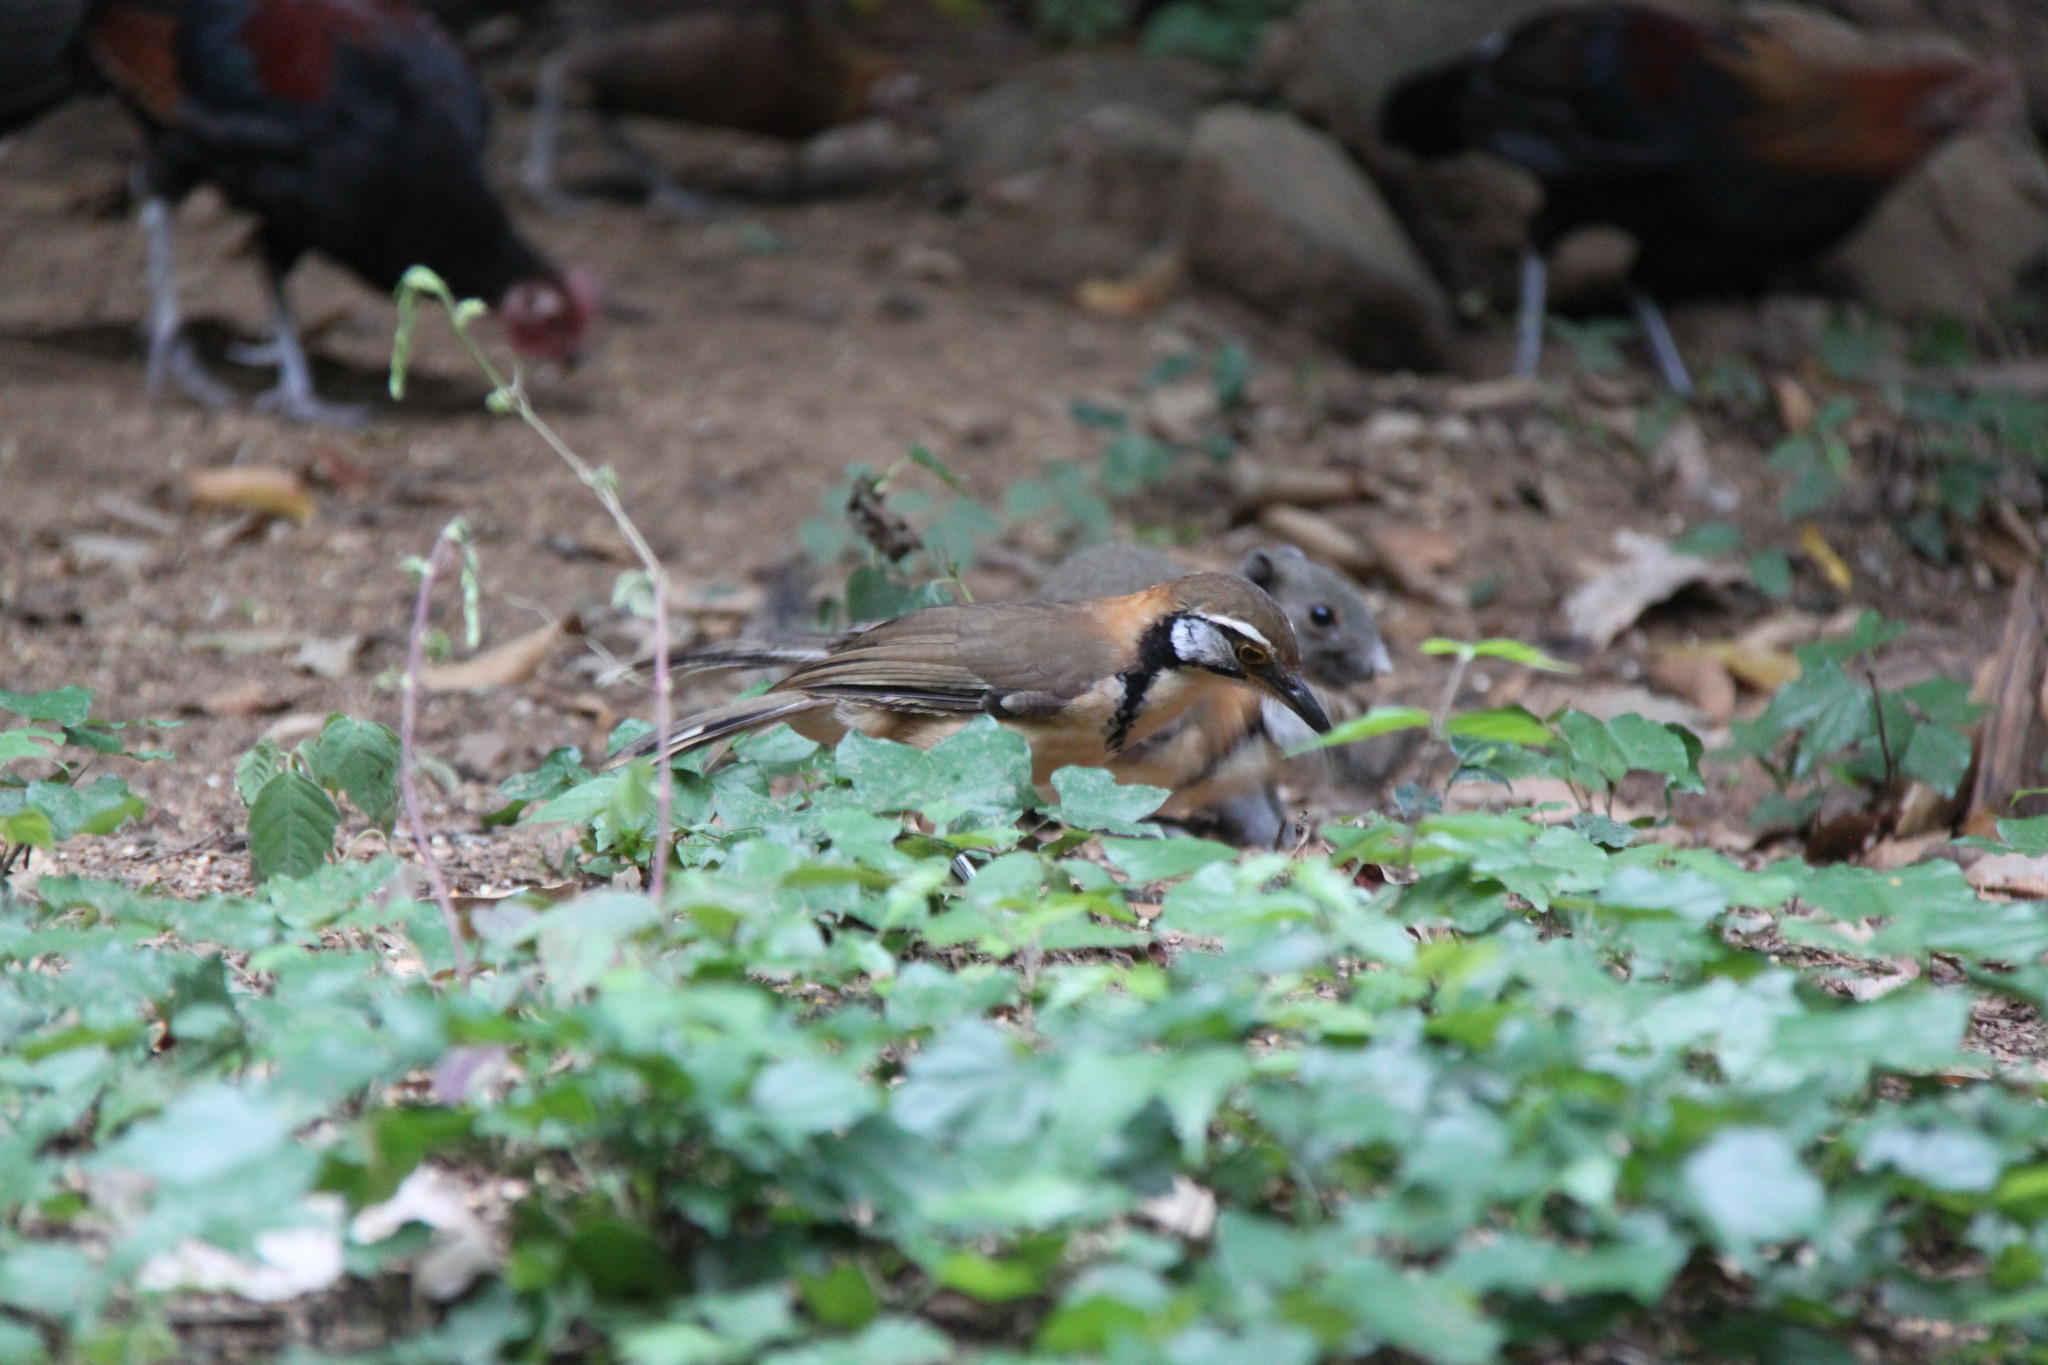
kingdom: Animalia
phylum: Chordata
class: Aves
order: Passeriformes
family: Leiothrichidae
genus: Garrulax
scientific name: Garrulax pectoralis
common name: Greater necklaced laughingthrush
